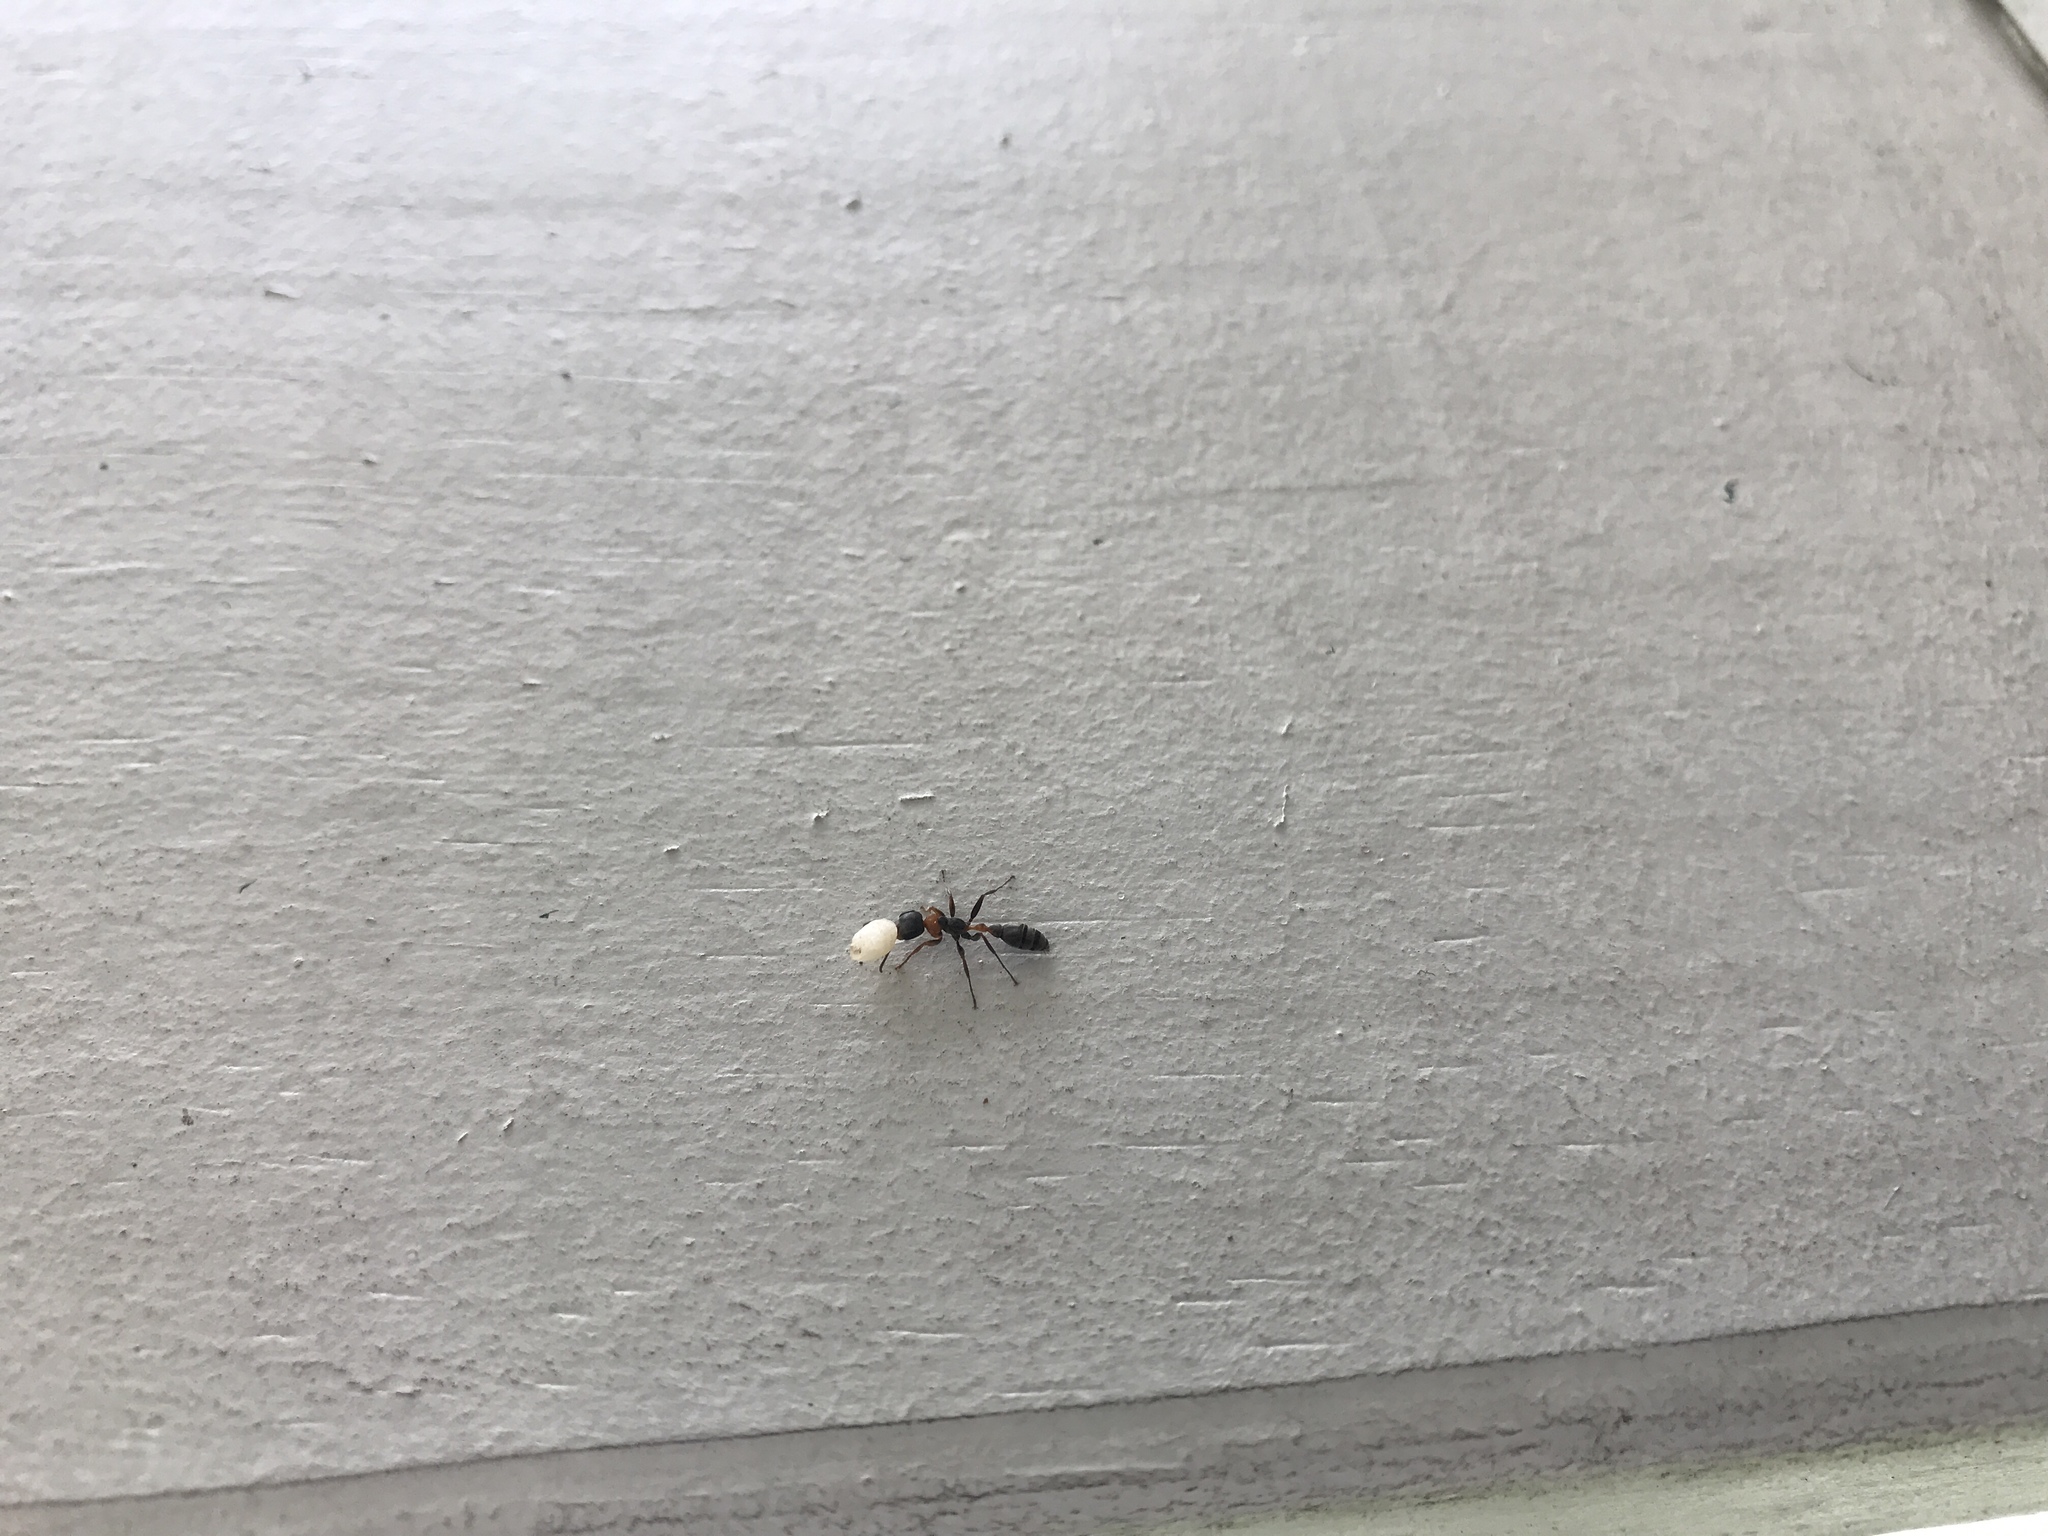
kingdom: Animalia
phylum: Arthropoda
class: Insecta
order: Hymenoptera
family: Formicidae
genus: Pseudomyrmex
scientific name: Pseudomyrmex gracilis
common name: Graceful twig ant
